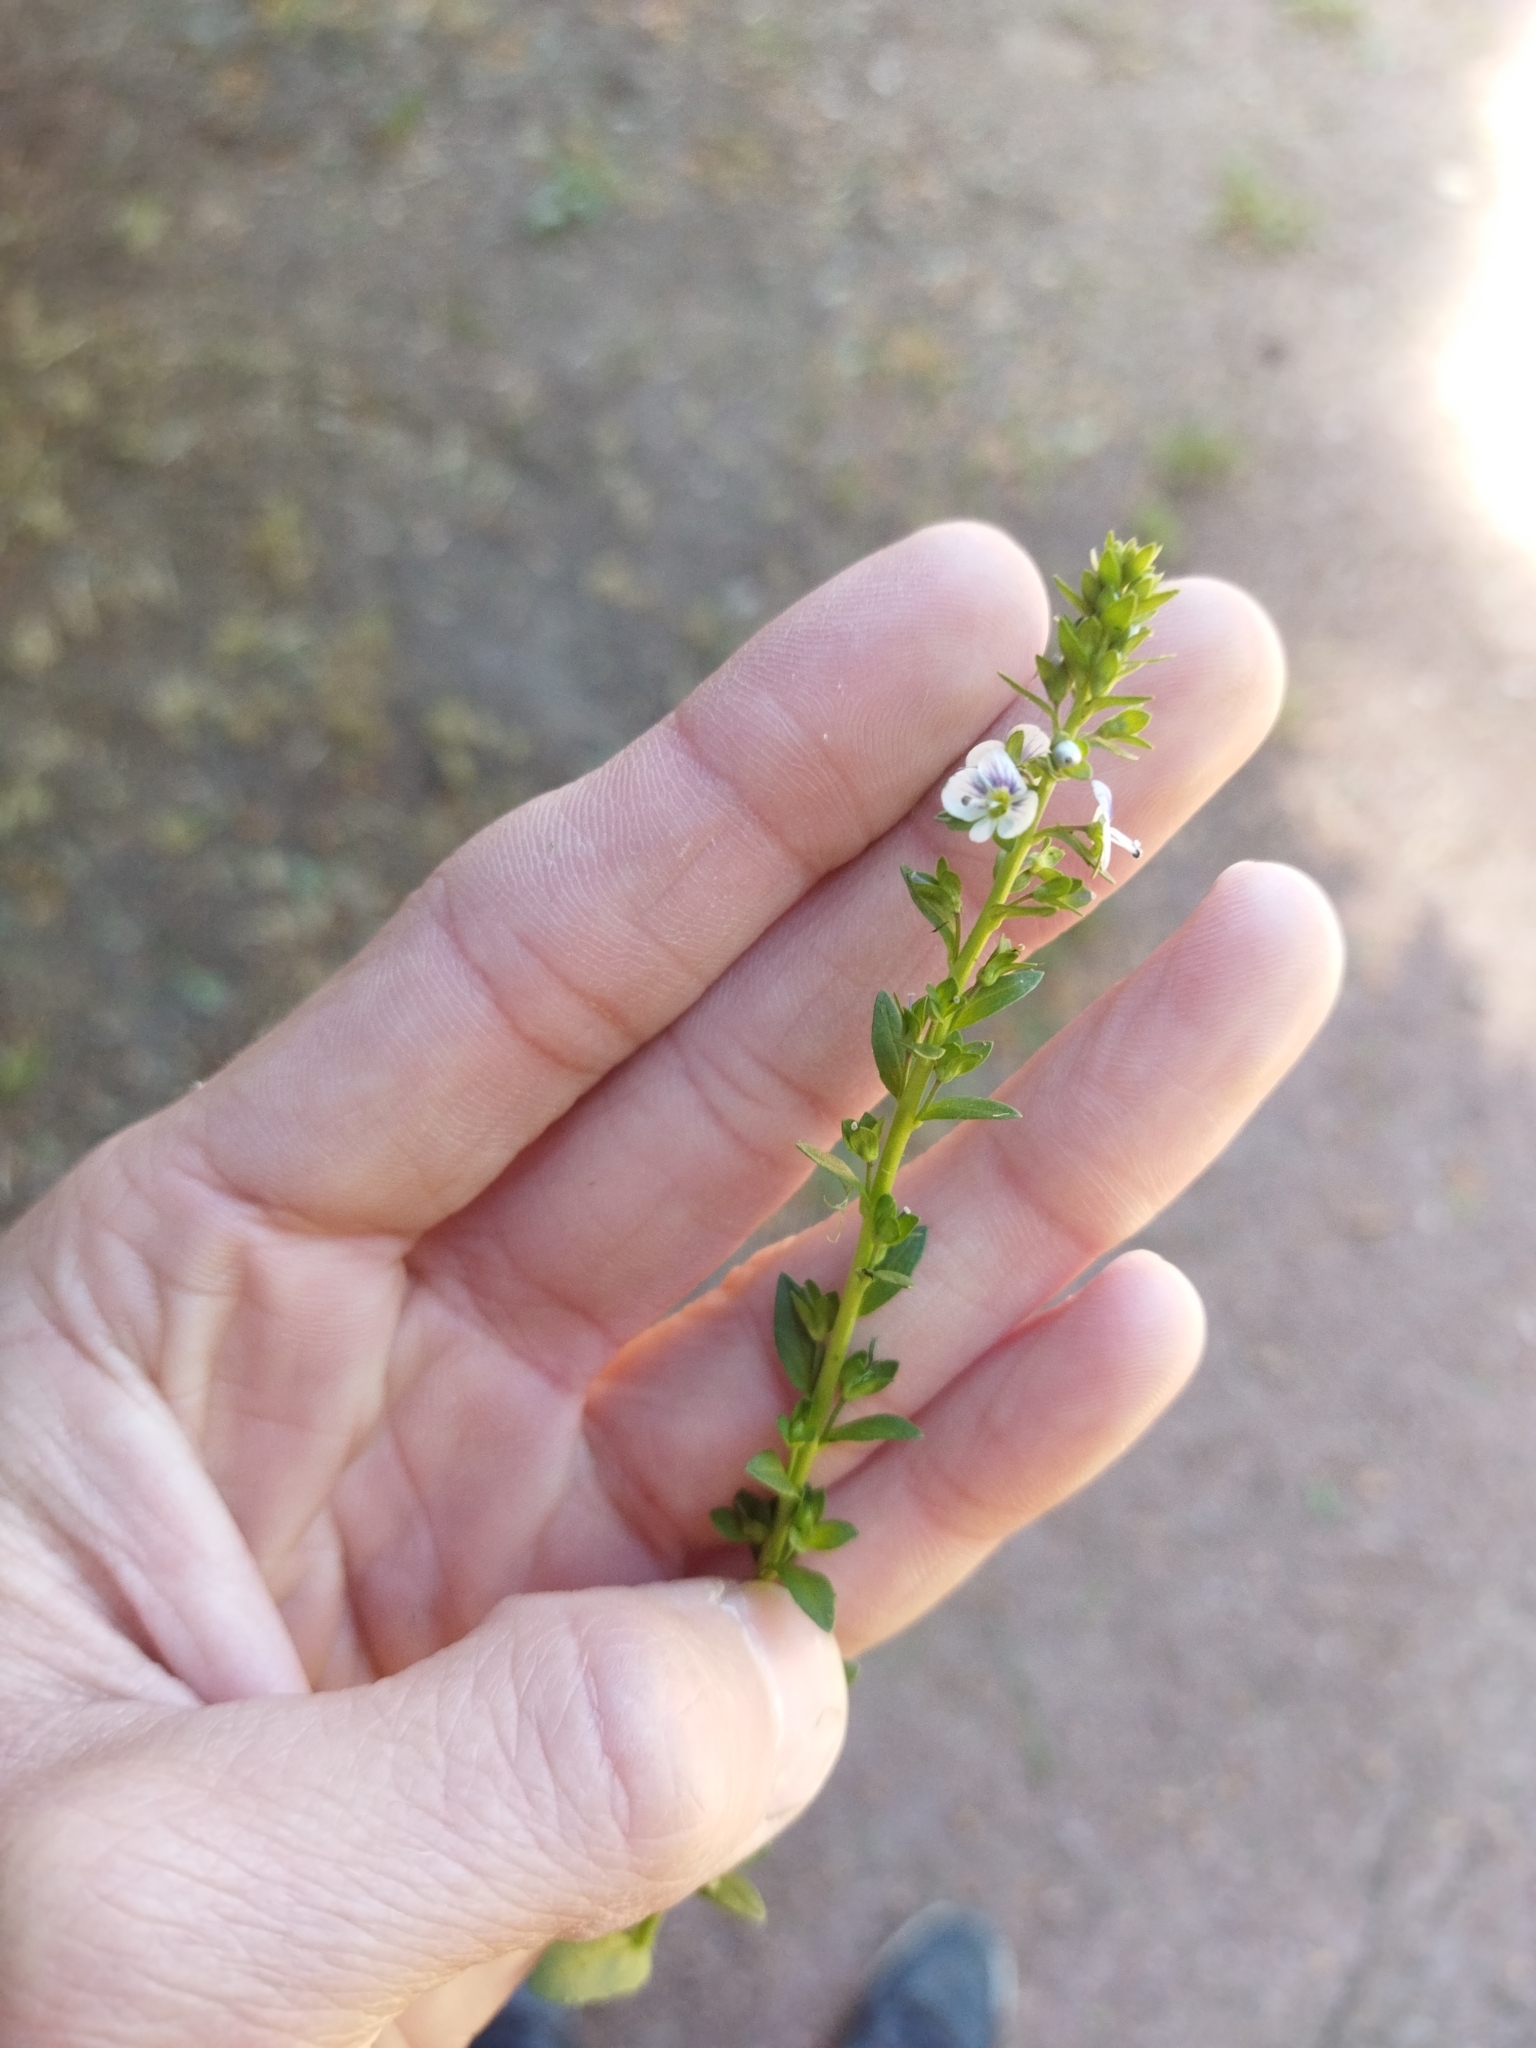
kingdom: Plantae
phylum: Tracheophyta
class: Magnoliopsida
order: Lamiales
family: Plantaginaceae
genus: Veronica
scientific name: Veronica serpyllifolia
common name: Thyme-leaved speedwell
